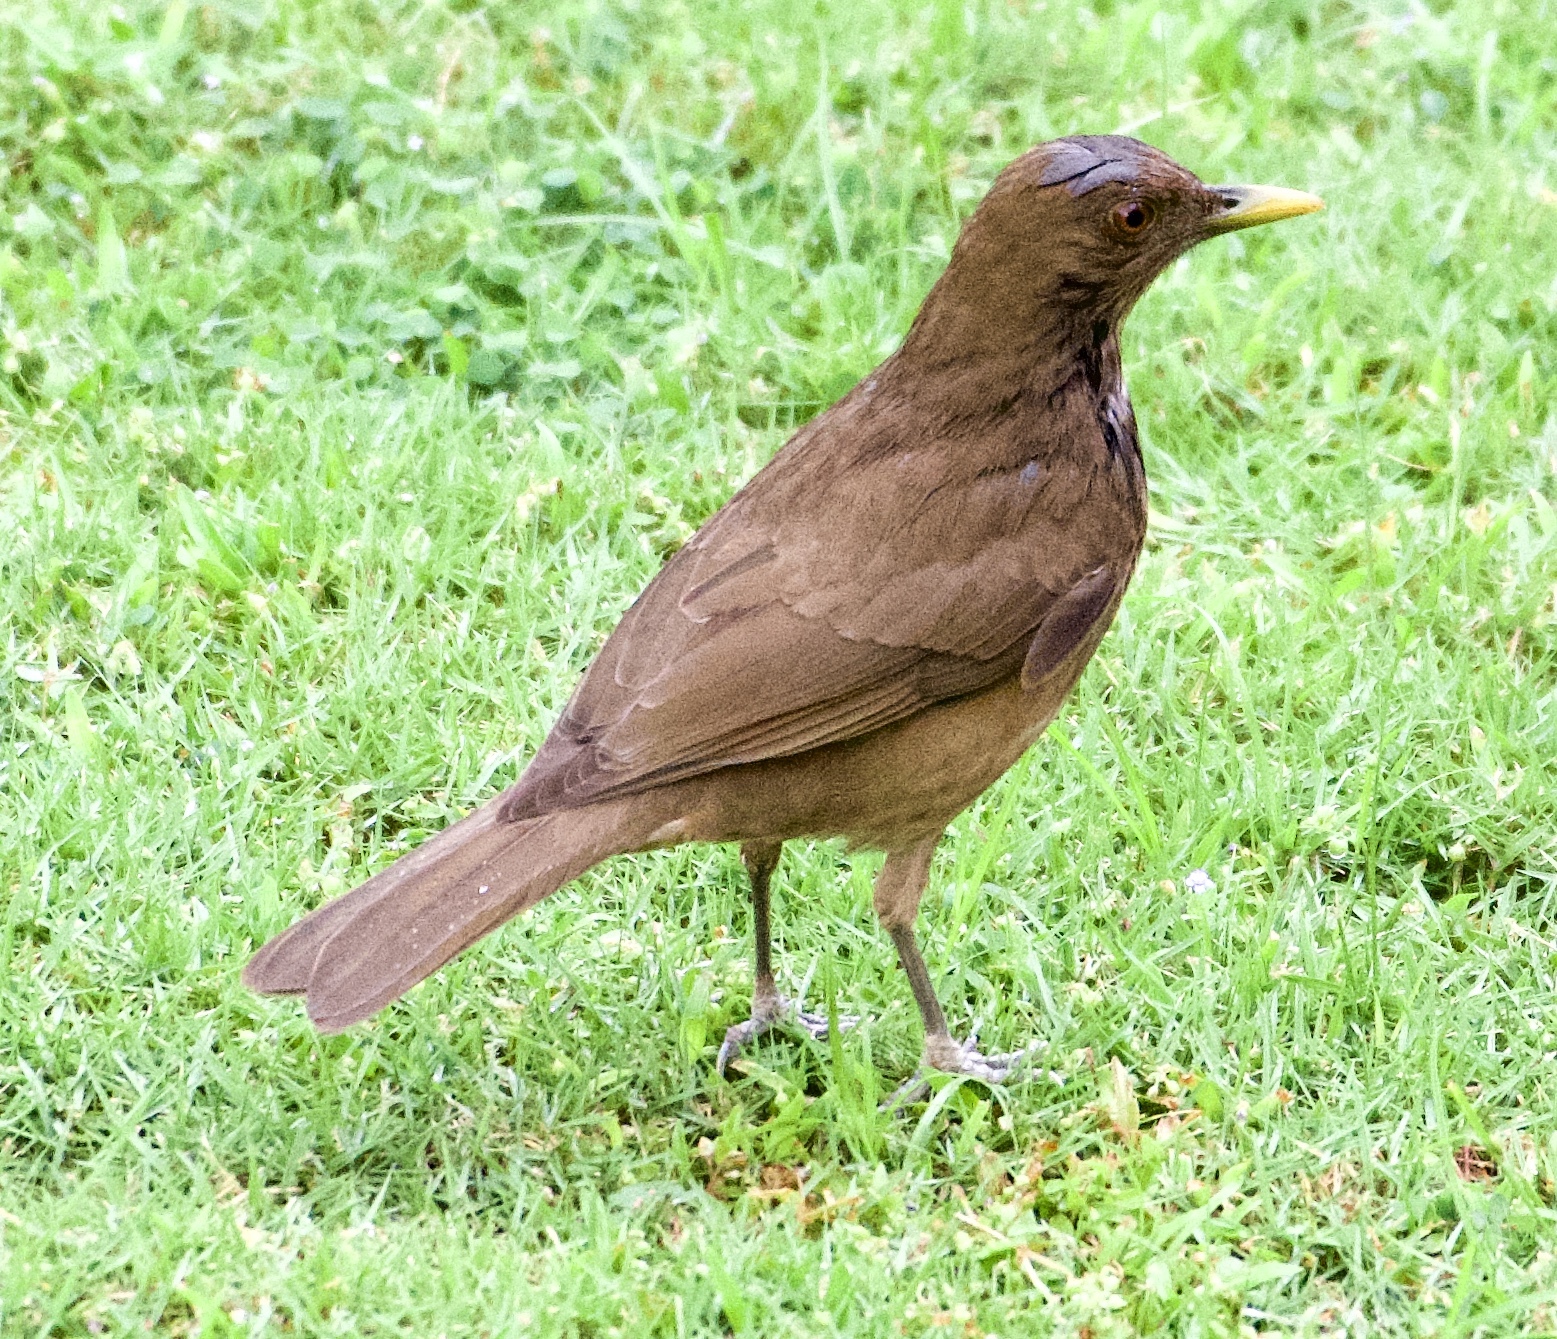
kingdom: Animalia
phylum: Chordata
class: Aves
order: Passeriformes
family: Turdidae
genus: Turdus
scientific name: Turdus grayi
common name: Clay-colored thrush
